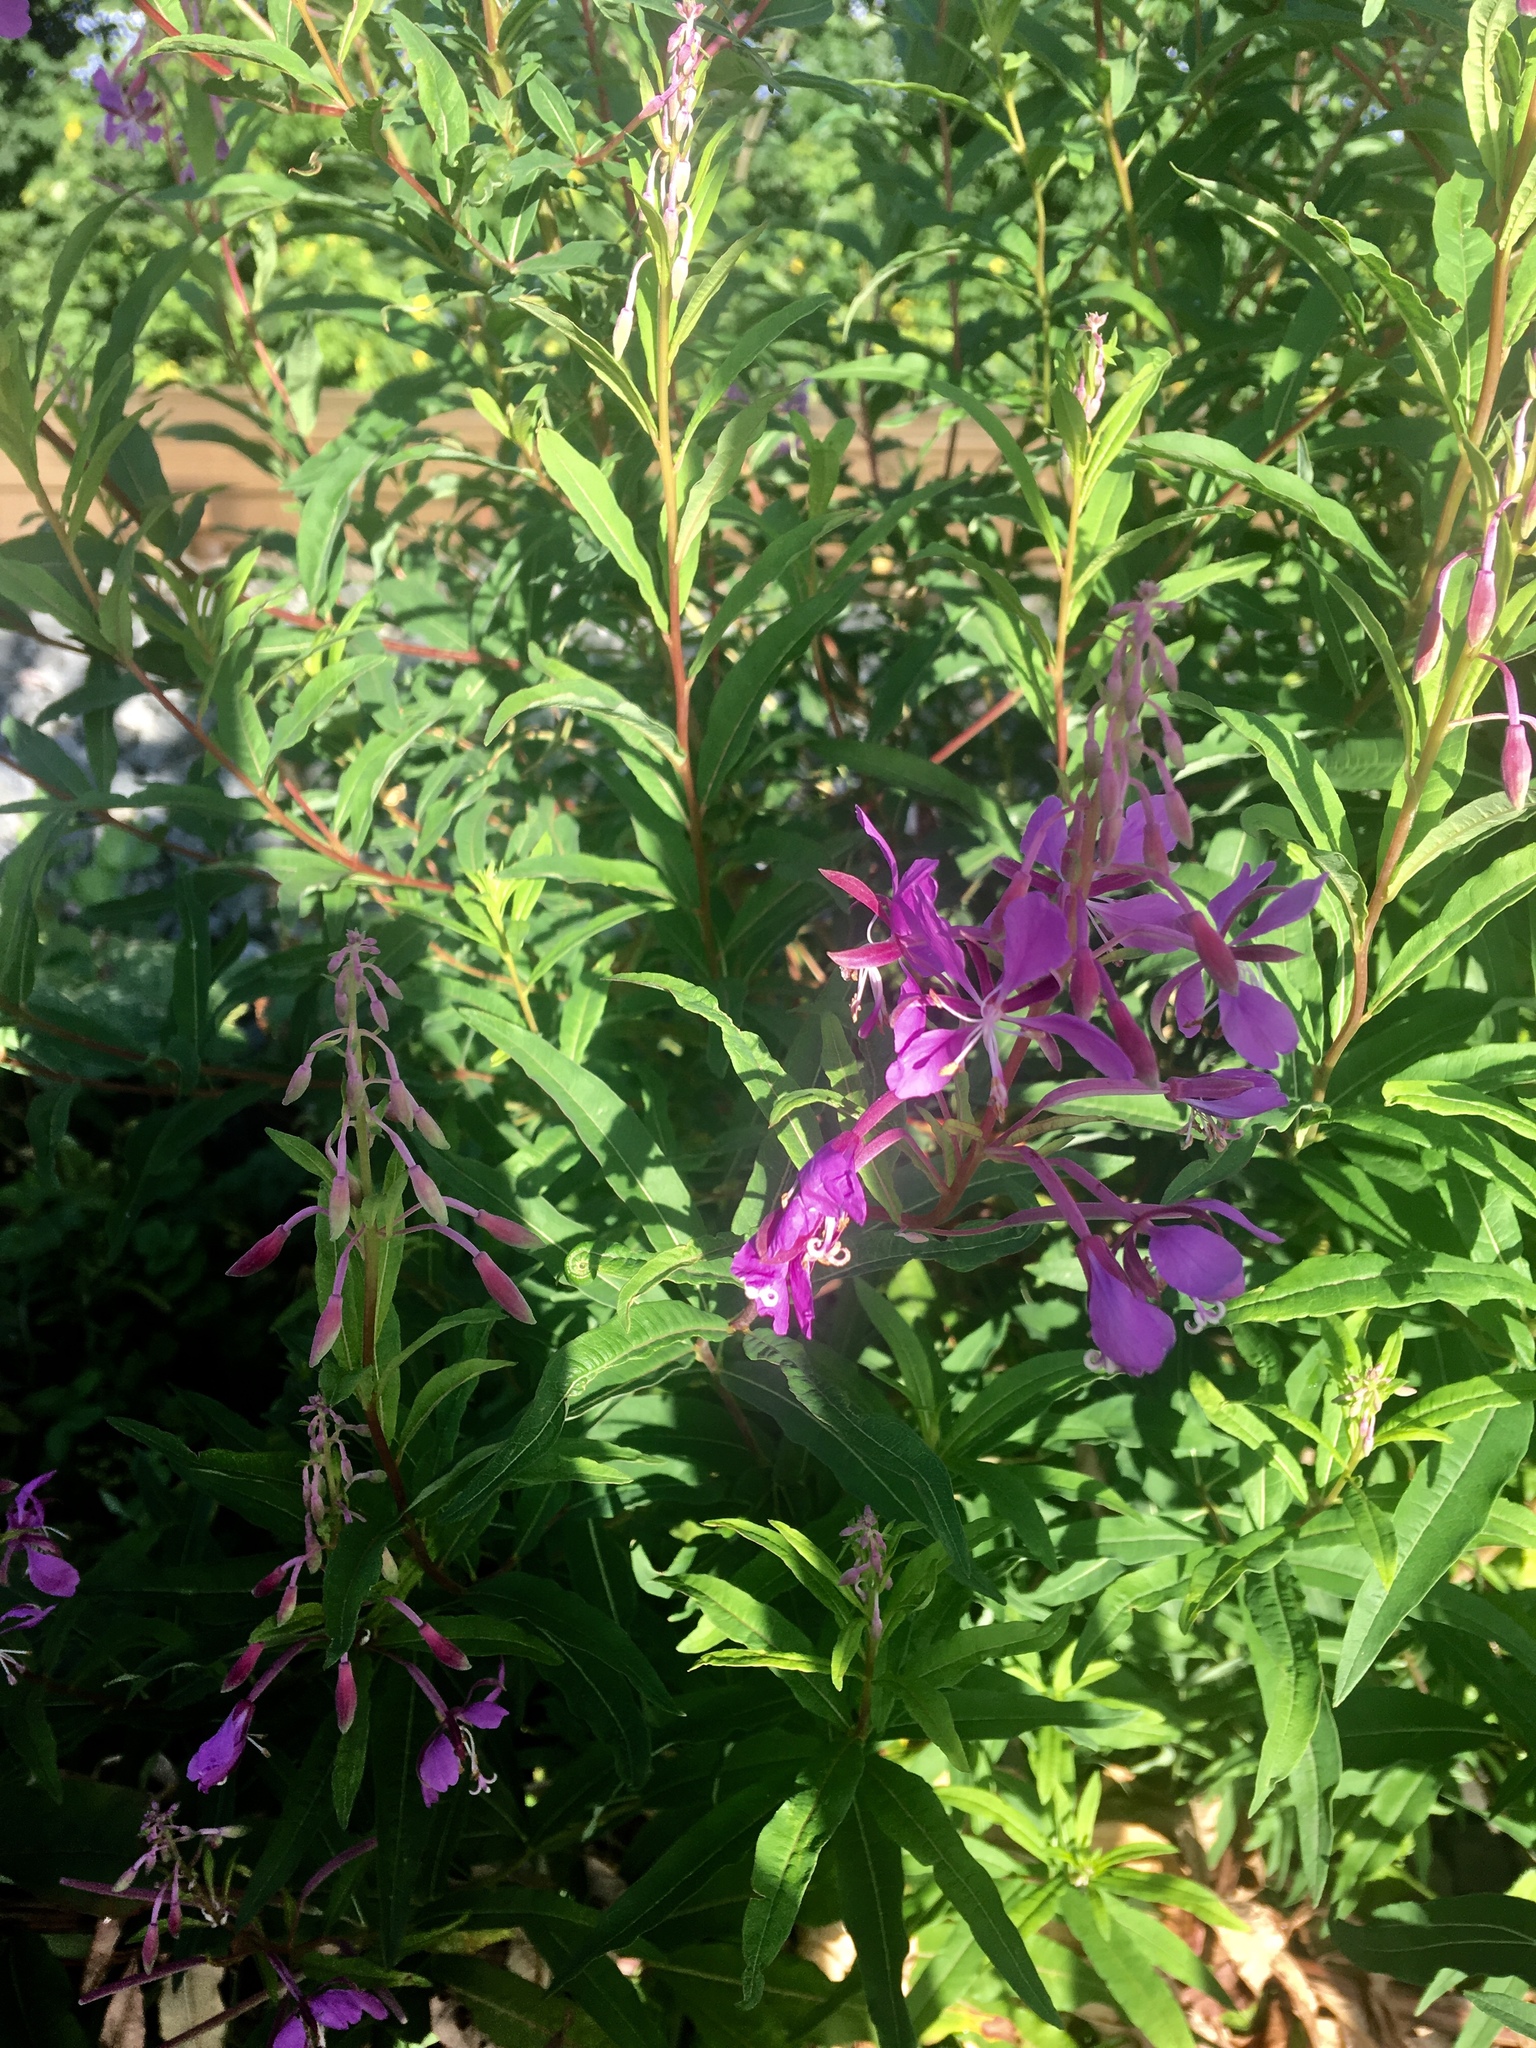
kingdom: Plantae
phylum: Tracheophyta
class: Magnoliopsida
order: Myrtales
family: Onagraceae
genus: Chamaenerion
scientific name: Chamaenerion angustifolium
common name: Fireweed
